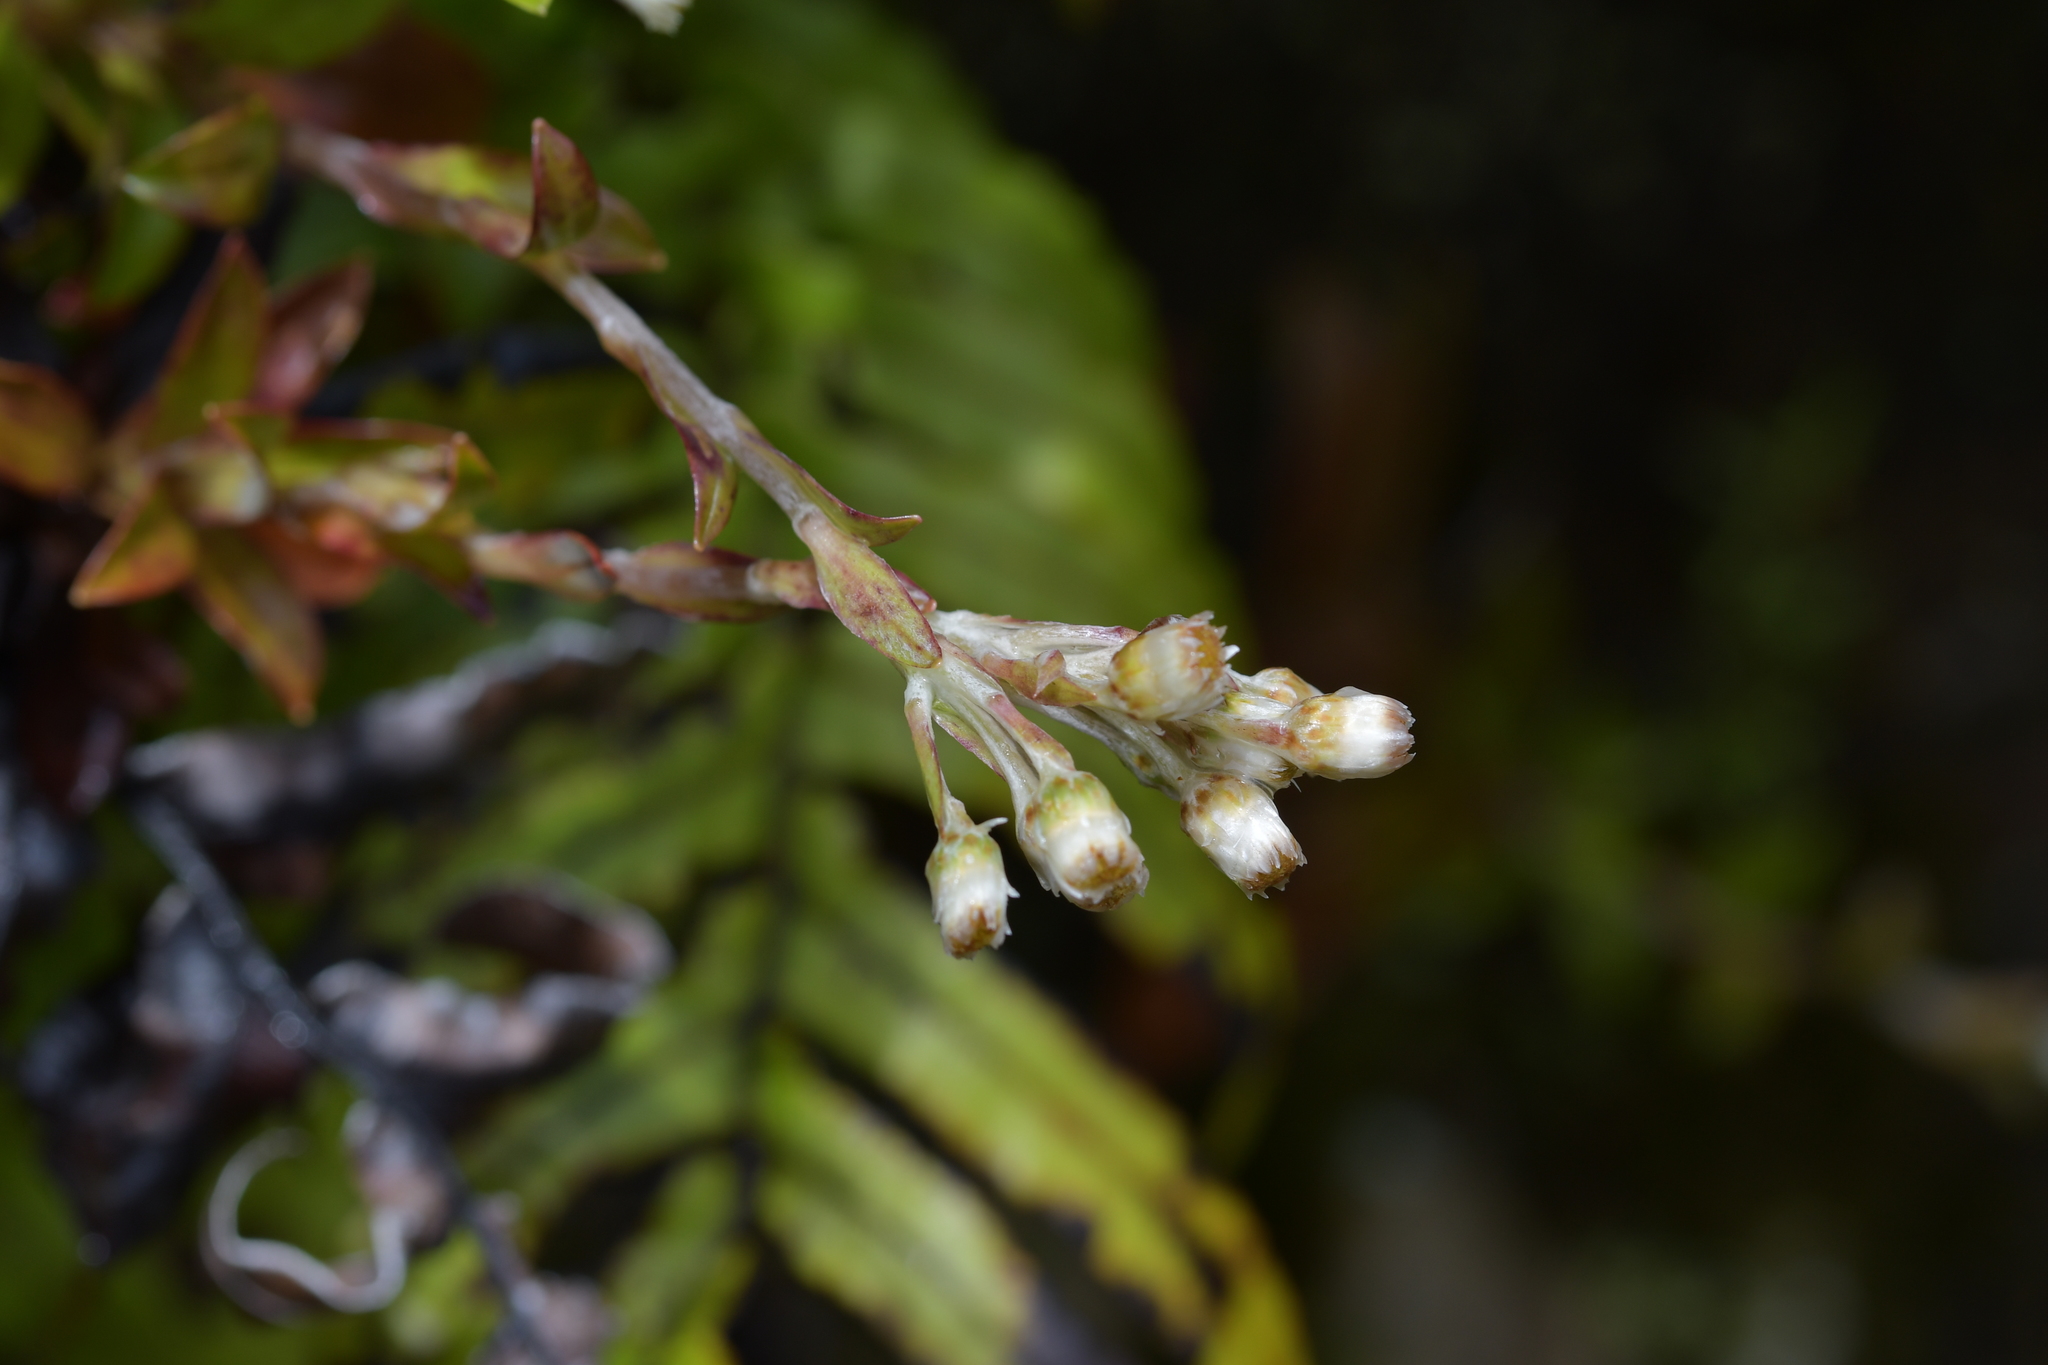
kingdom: Plantae
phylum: Tracheophyta
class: Magnoliopsida
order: Asterales
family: Asteraceae
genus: Anaphalioides
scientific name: Anaphalioides trinervis
